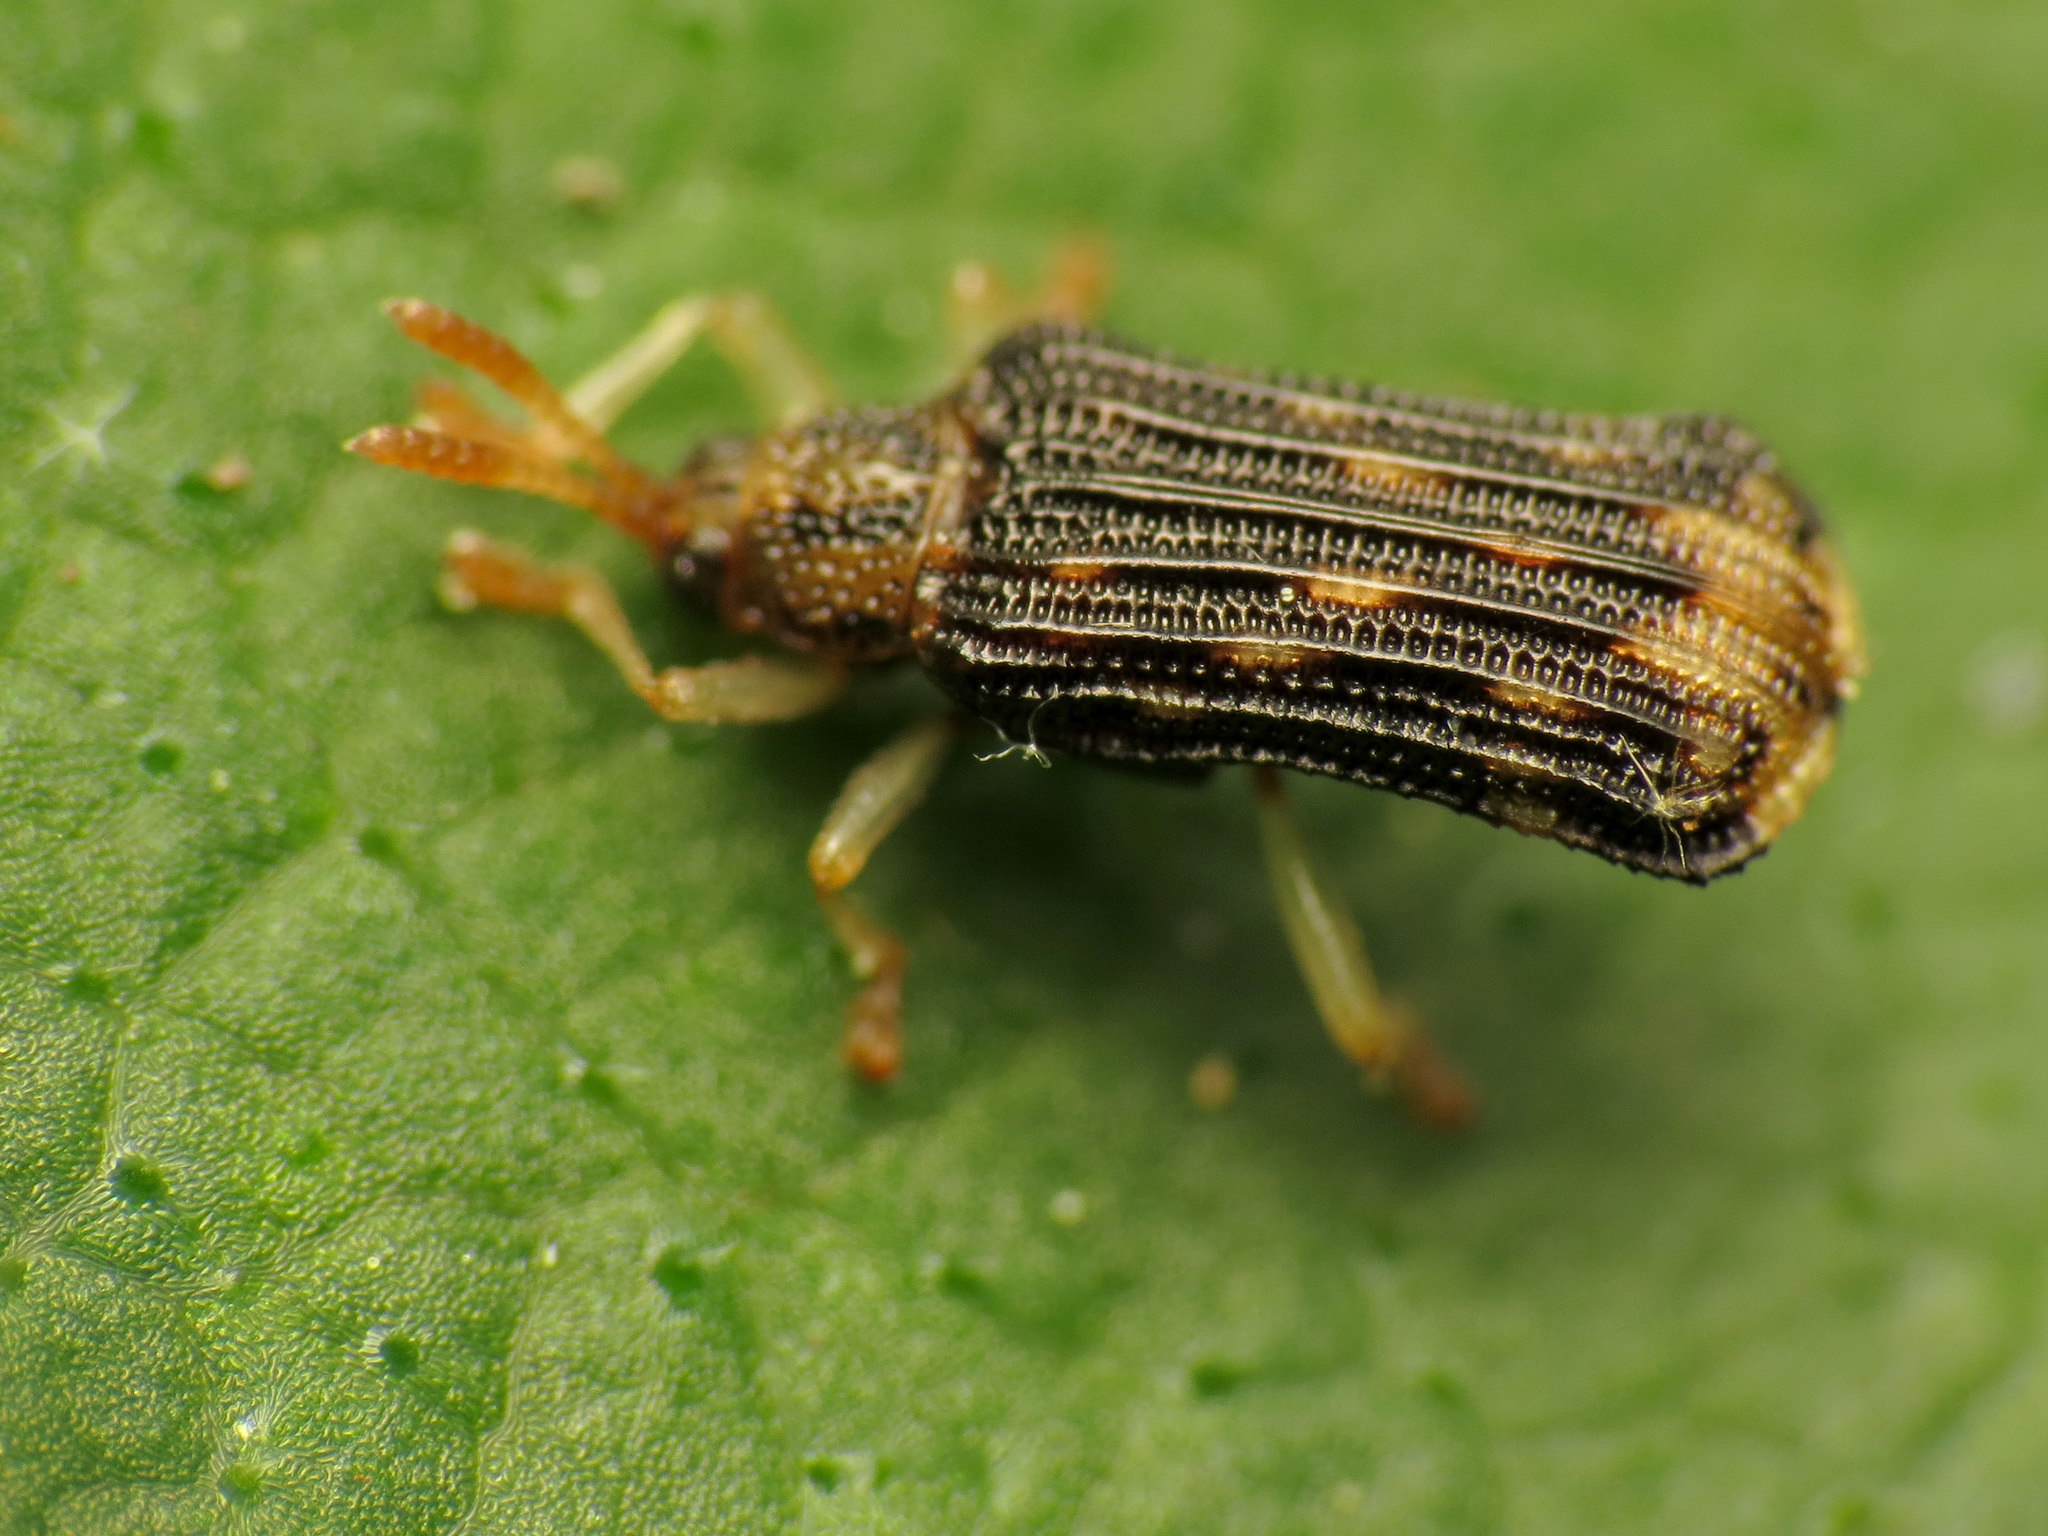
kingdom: Animalia
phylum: Arthropoda
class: Insecta
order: Coleoptera
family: Chrysomelidae
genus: Sumitrosis
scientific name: Sumitrosis rosea
